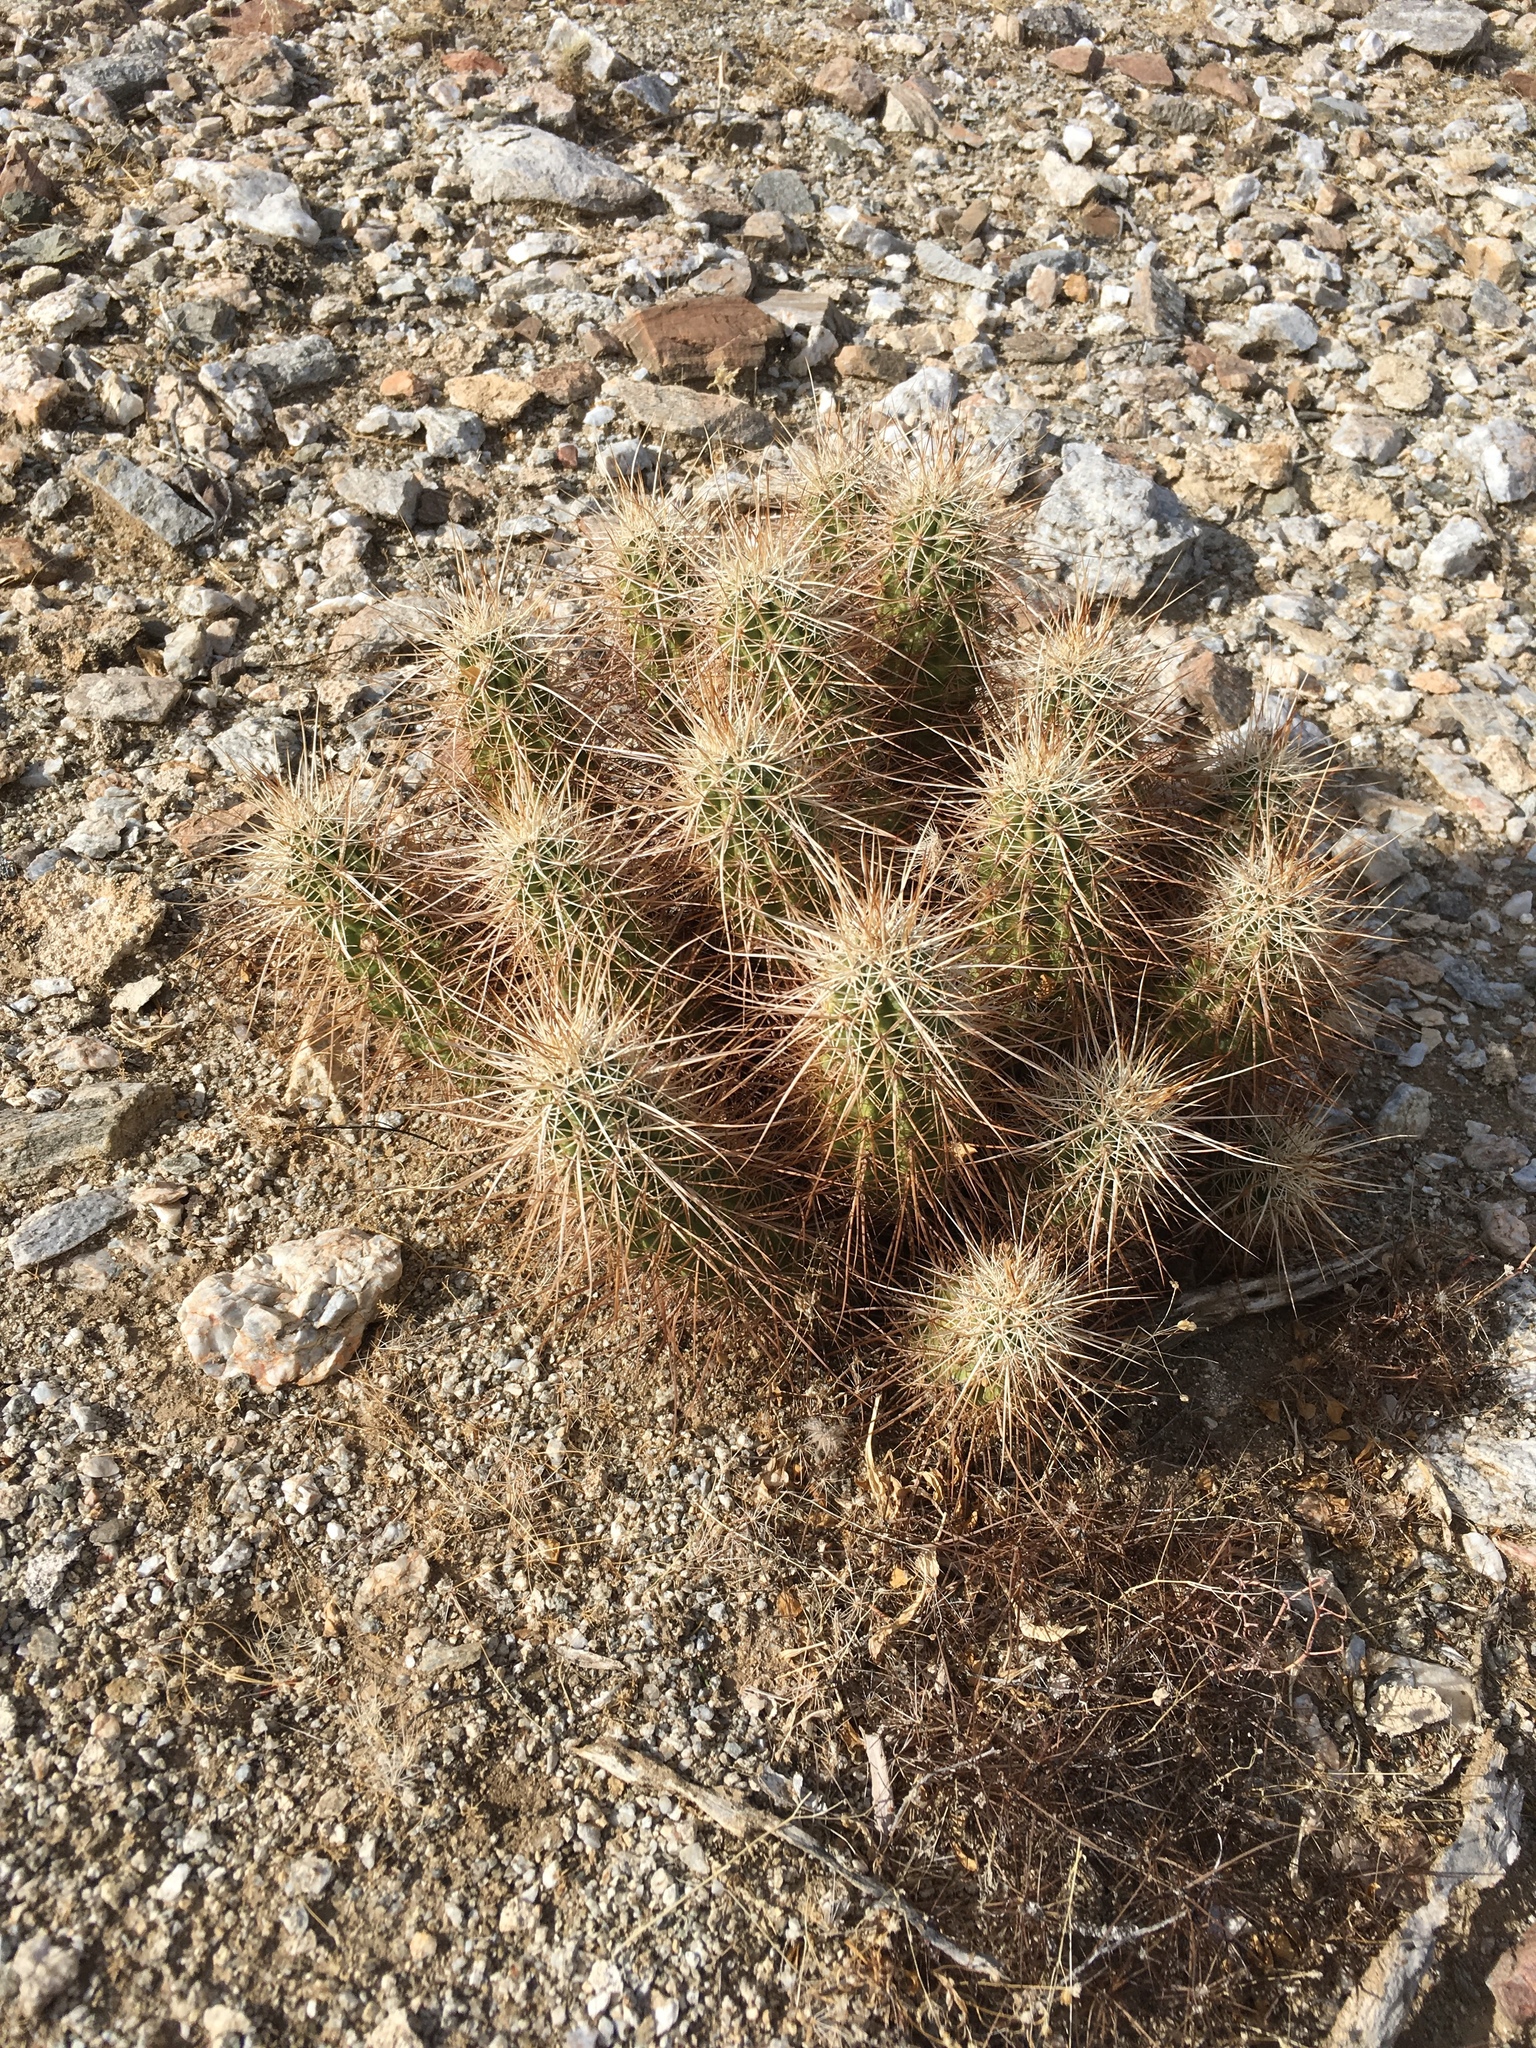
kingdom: Plantae
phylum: Tracheophyta
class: Magnoliopsida
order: Caryophyllales
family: Cactaceae
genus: Echinocereus
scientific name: Echinocereus engelmannii
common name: Engelmann's hedgehog cactus
